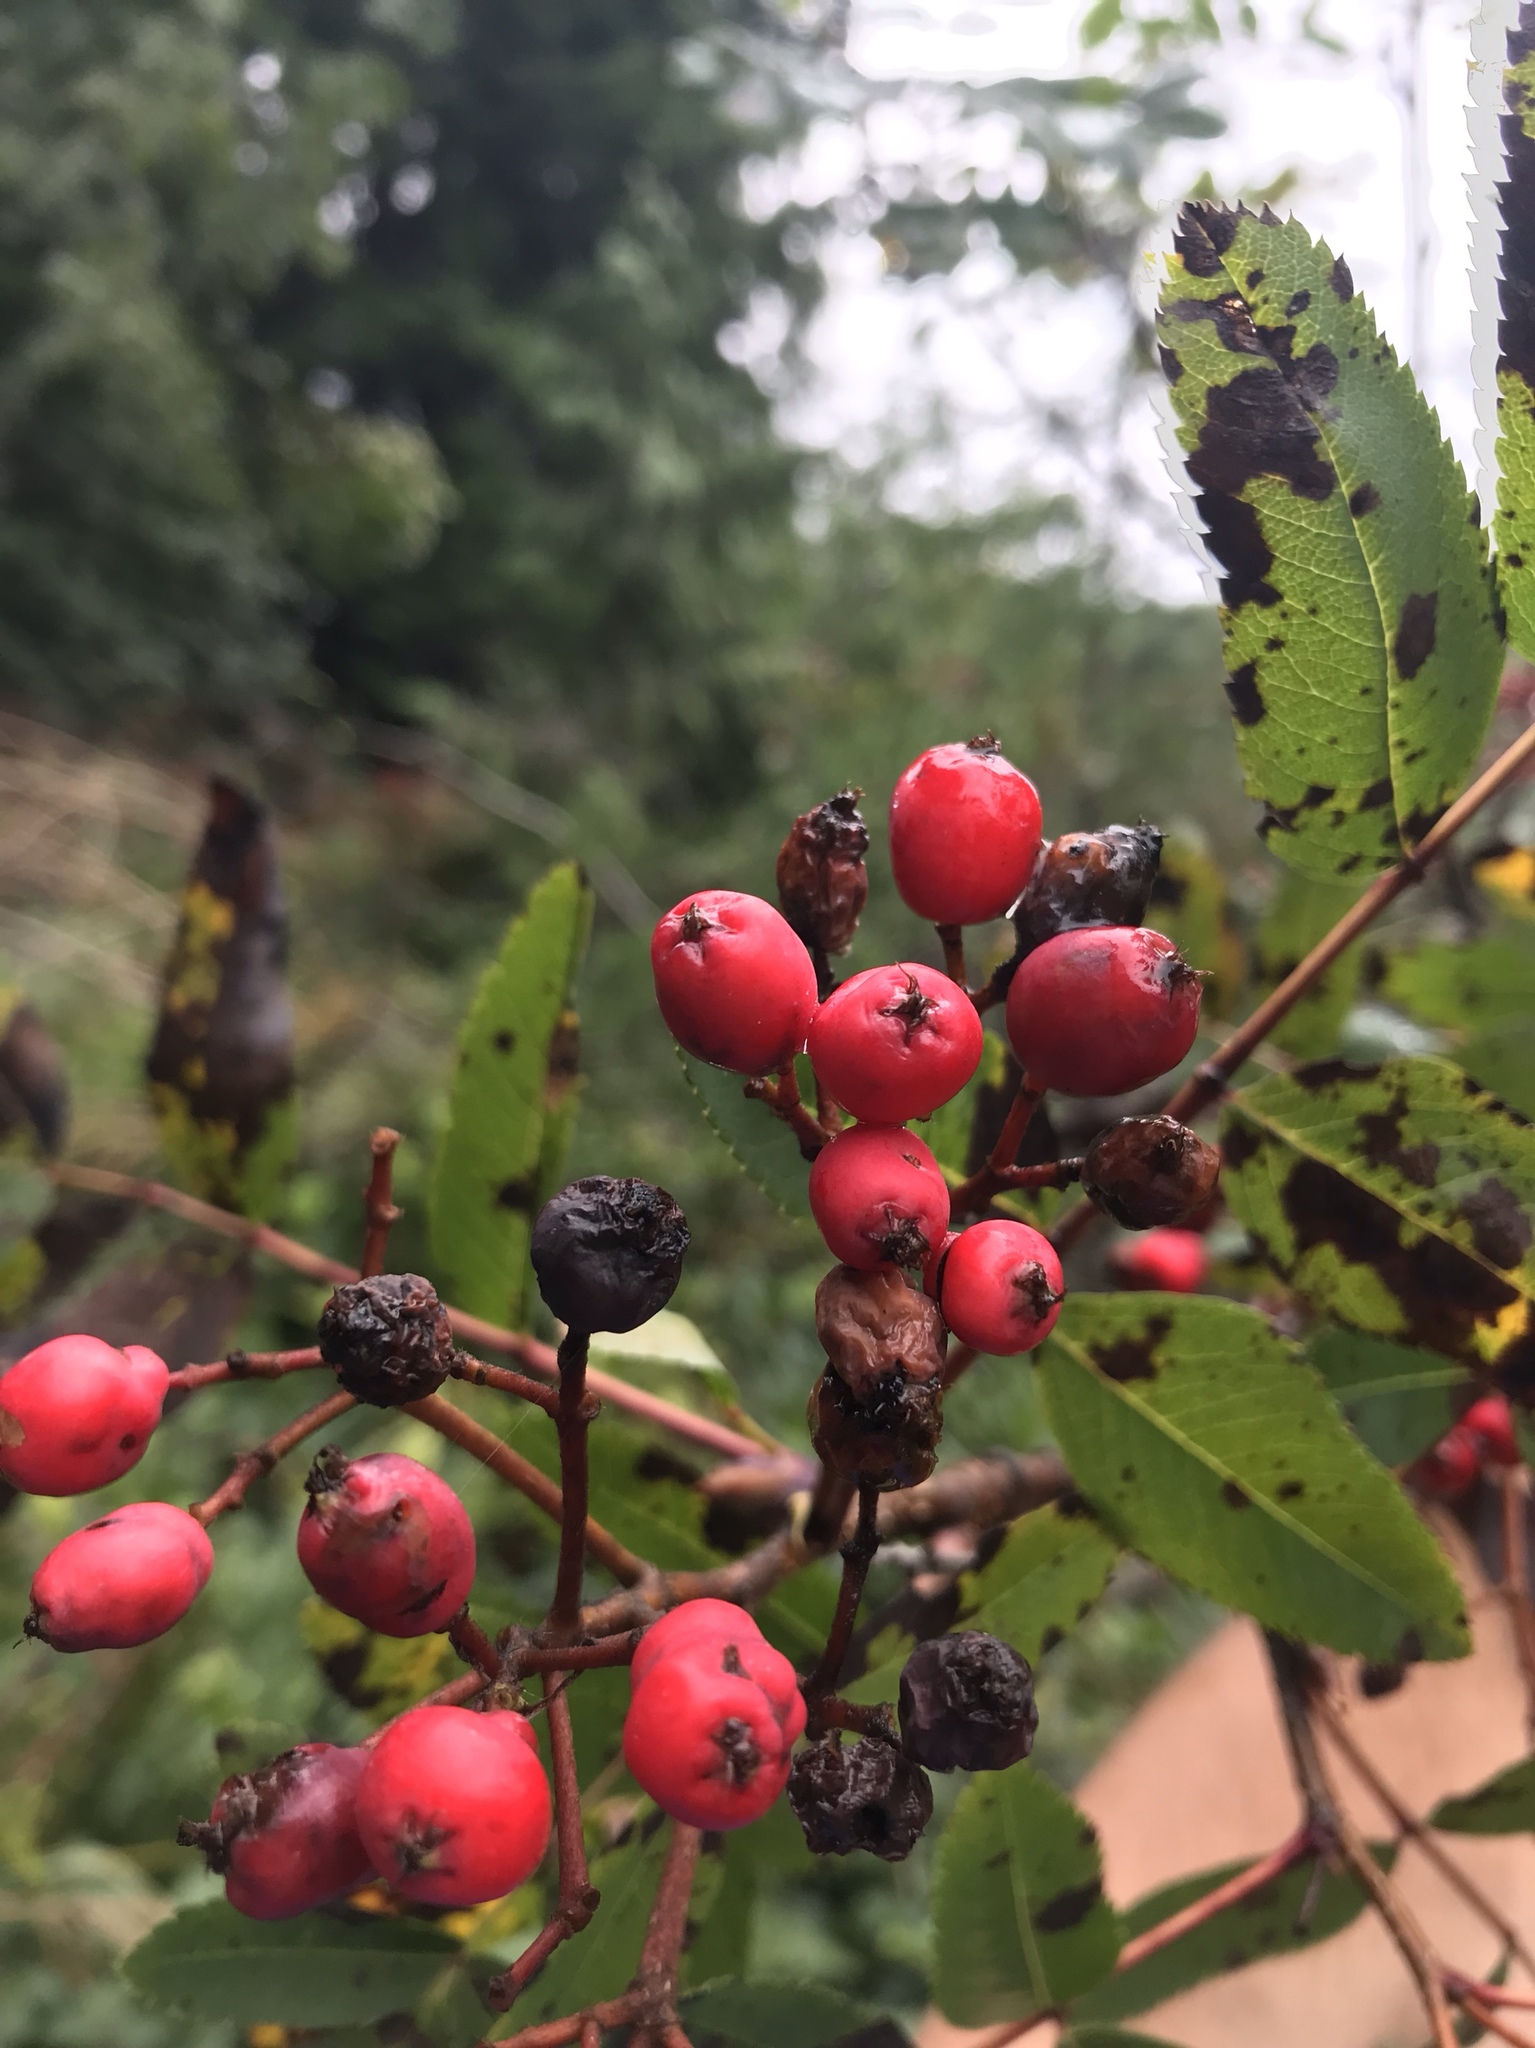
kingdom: Plantae
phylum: Tracheophyta
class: Magnoliopsida
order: Rosales
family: Rosaceae
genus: Sorbus
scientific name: Sorbus sitchensis
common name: Sitka mountain-ash
